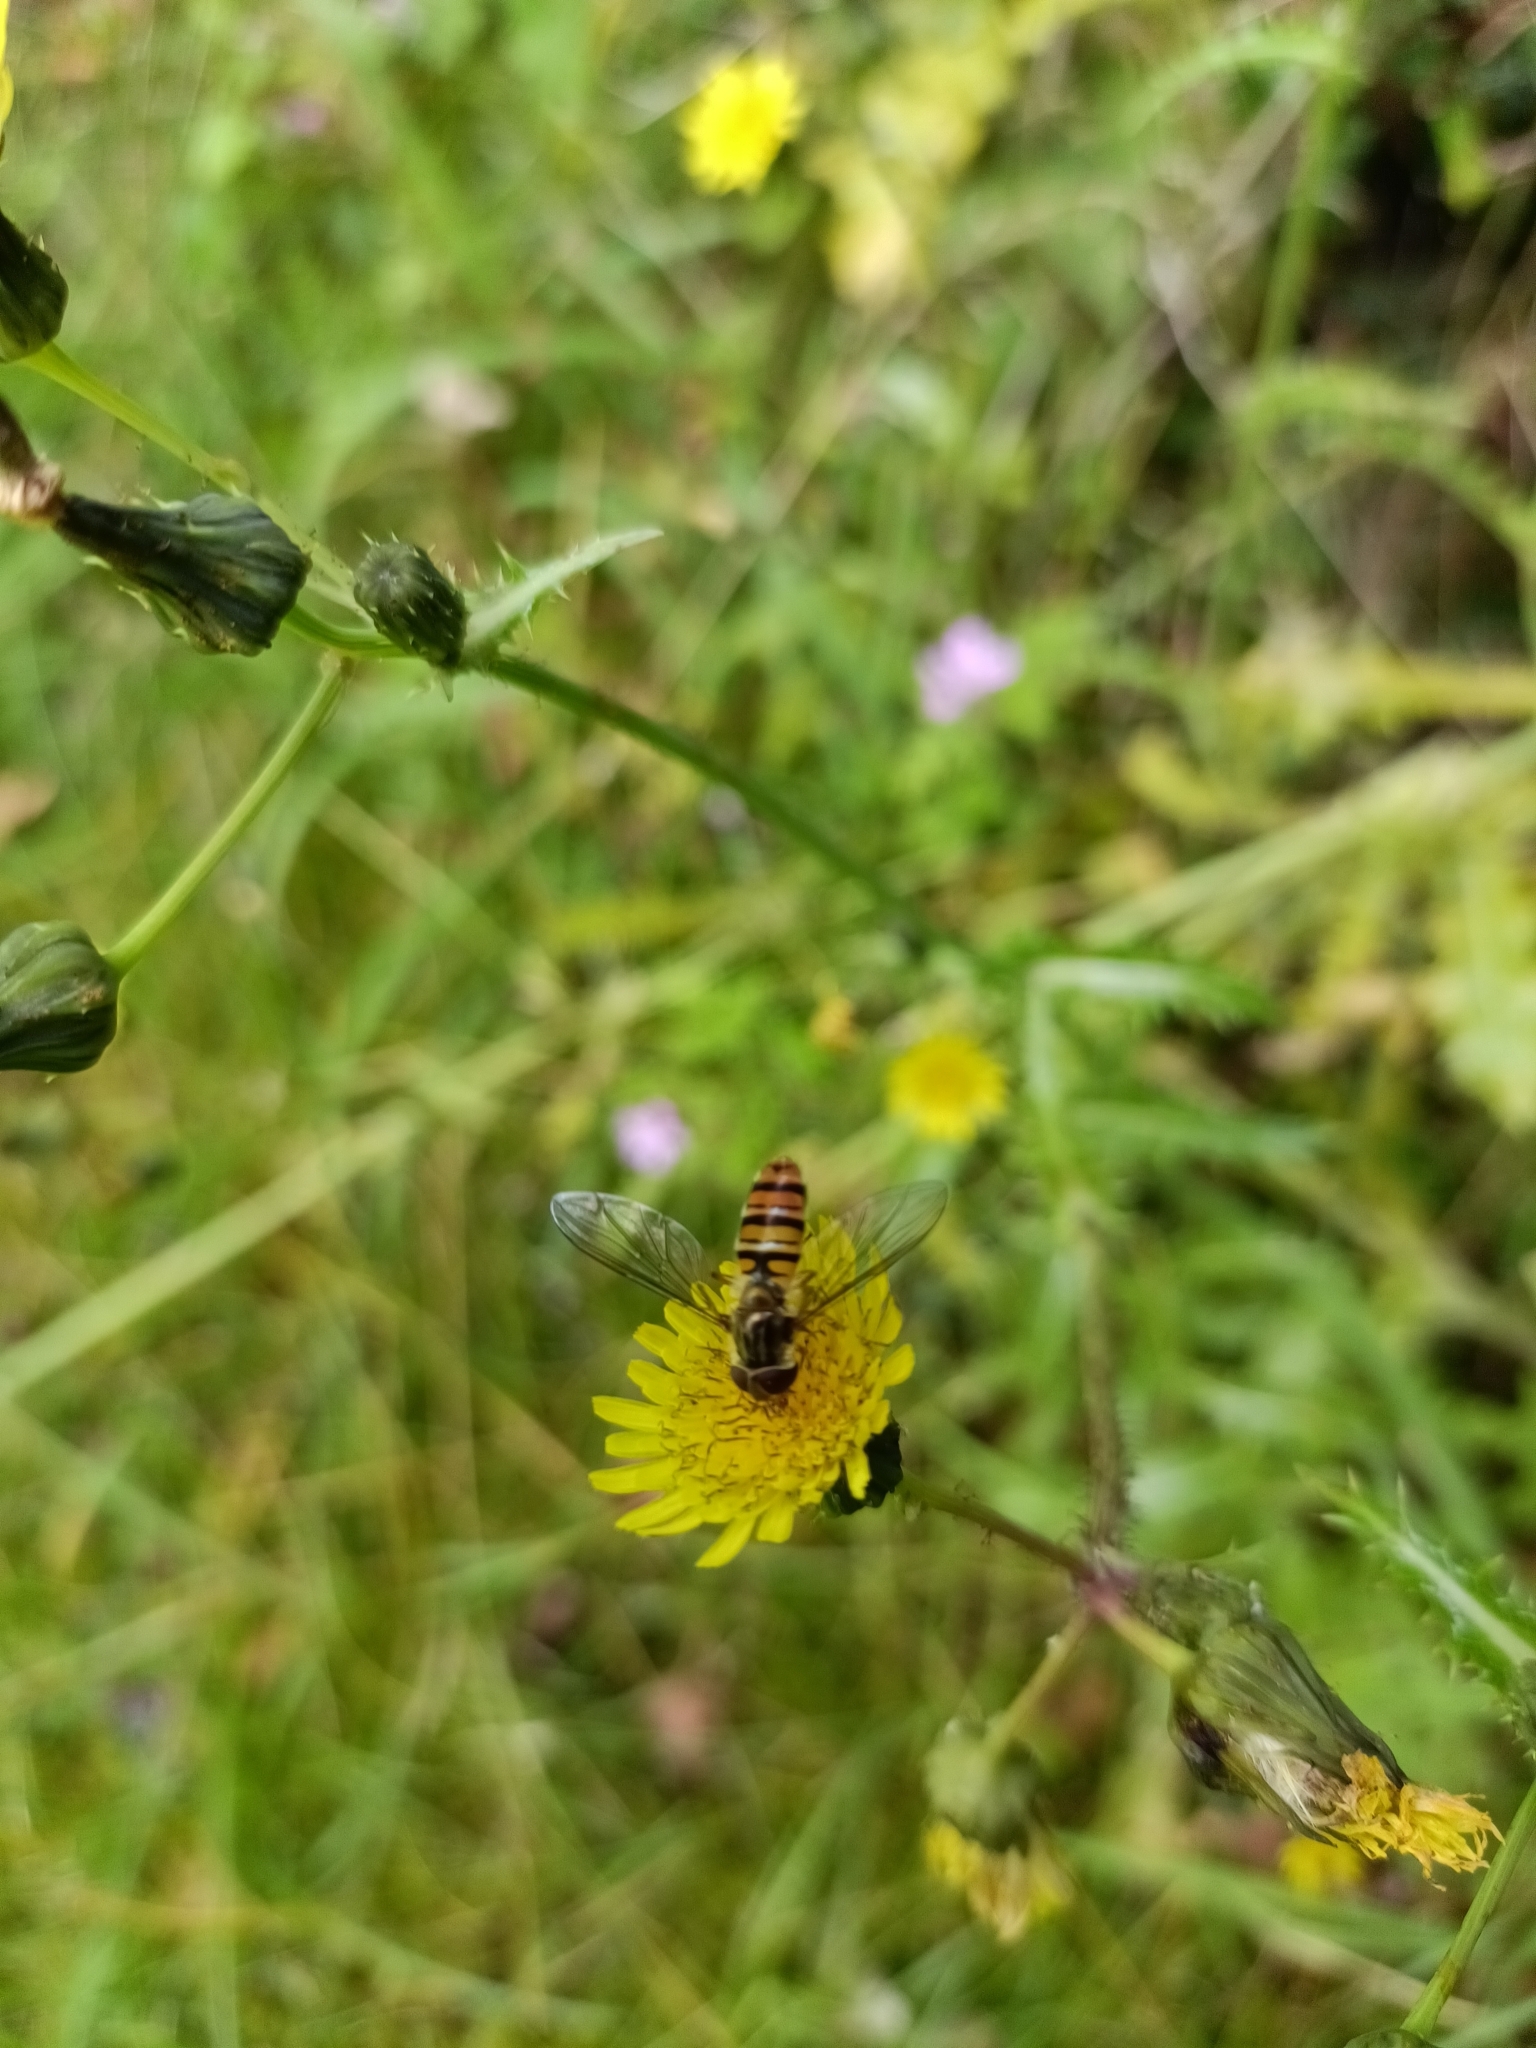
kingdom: Animalia
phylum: Arthropoda
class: Insecta
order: Diptera
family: Syrphidae
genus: Episyrphus
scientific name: Episyrphus balteatus
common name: Marmalade hoverfly
